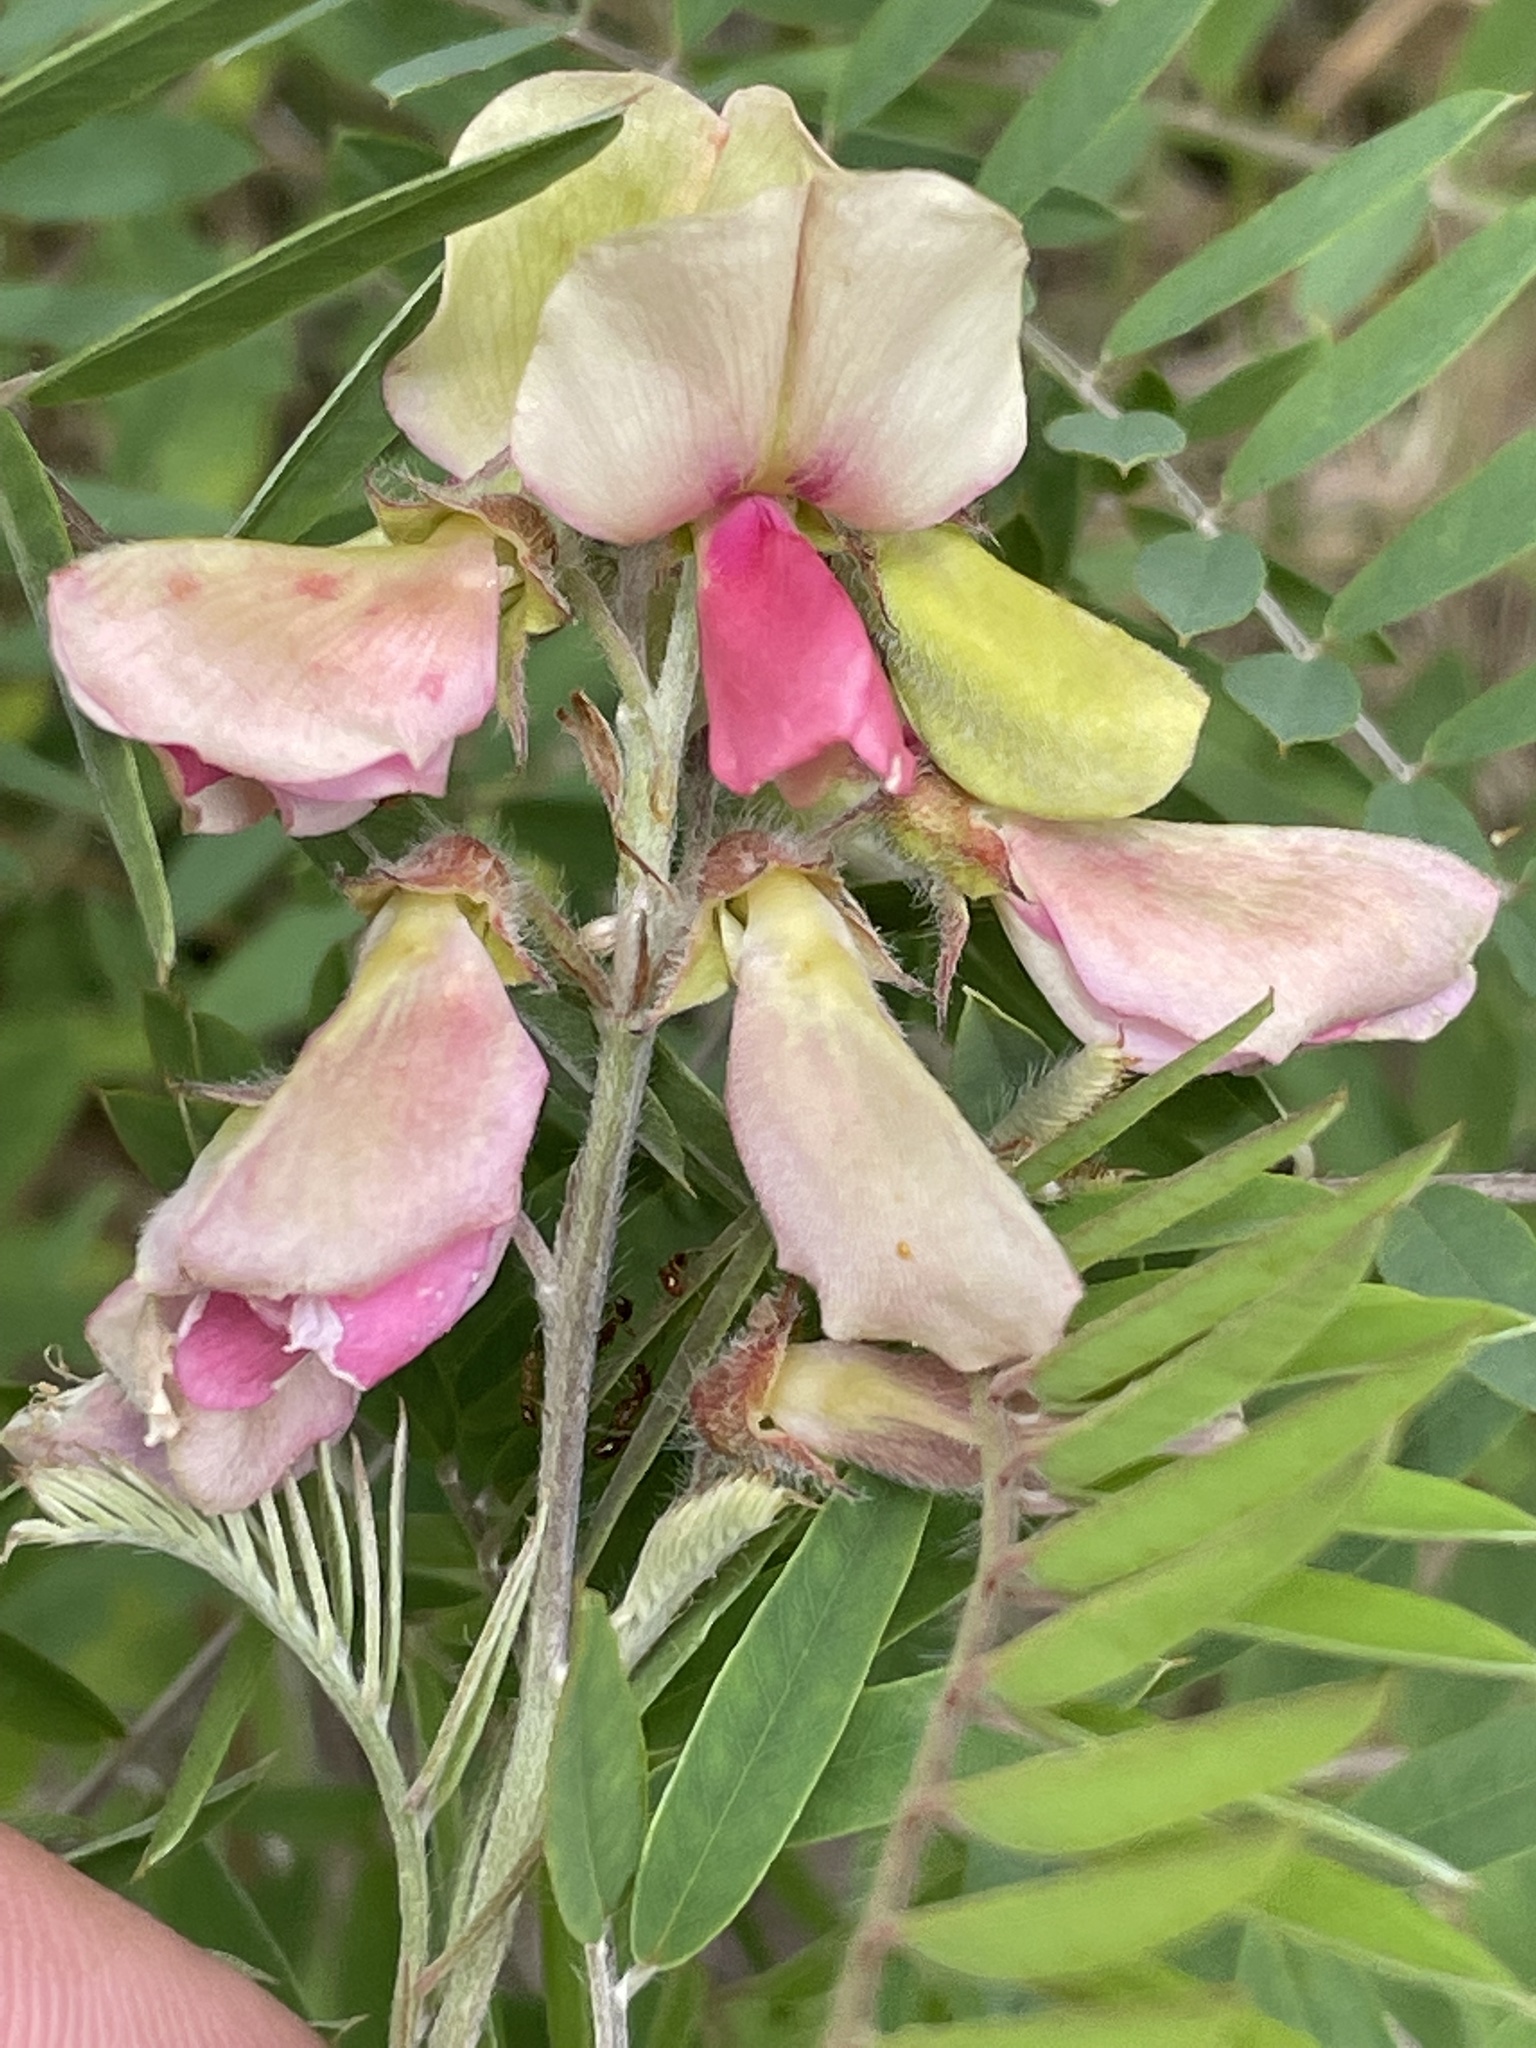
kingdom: Plantae
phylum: Tracheophyta
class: Magnoliopsida
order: Fabales
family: Fabaceae
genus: Tephrosia
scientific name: Tephrosia virginiana
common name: Rabbit-pea
